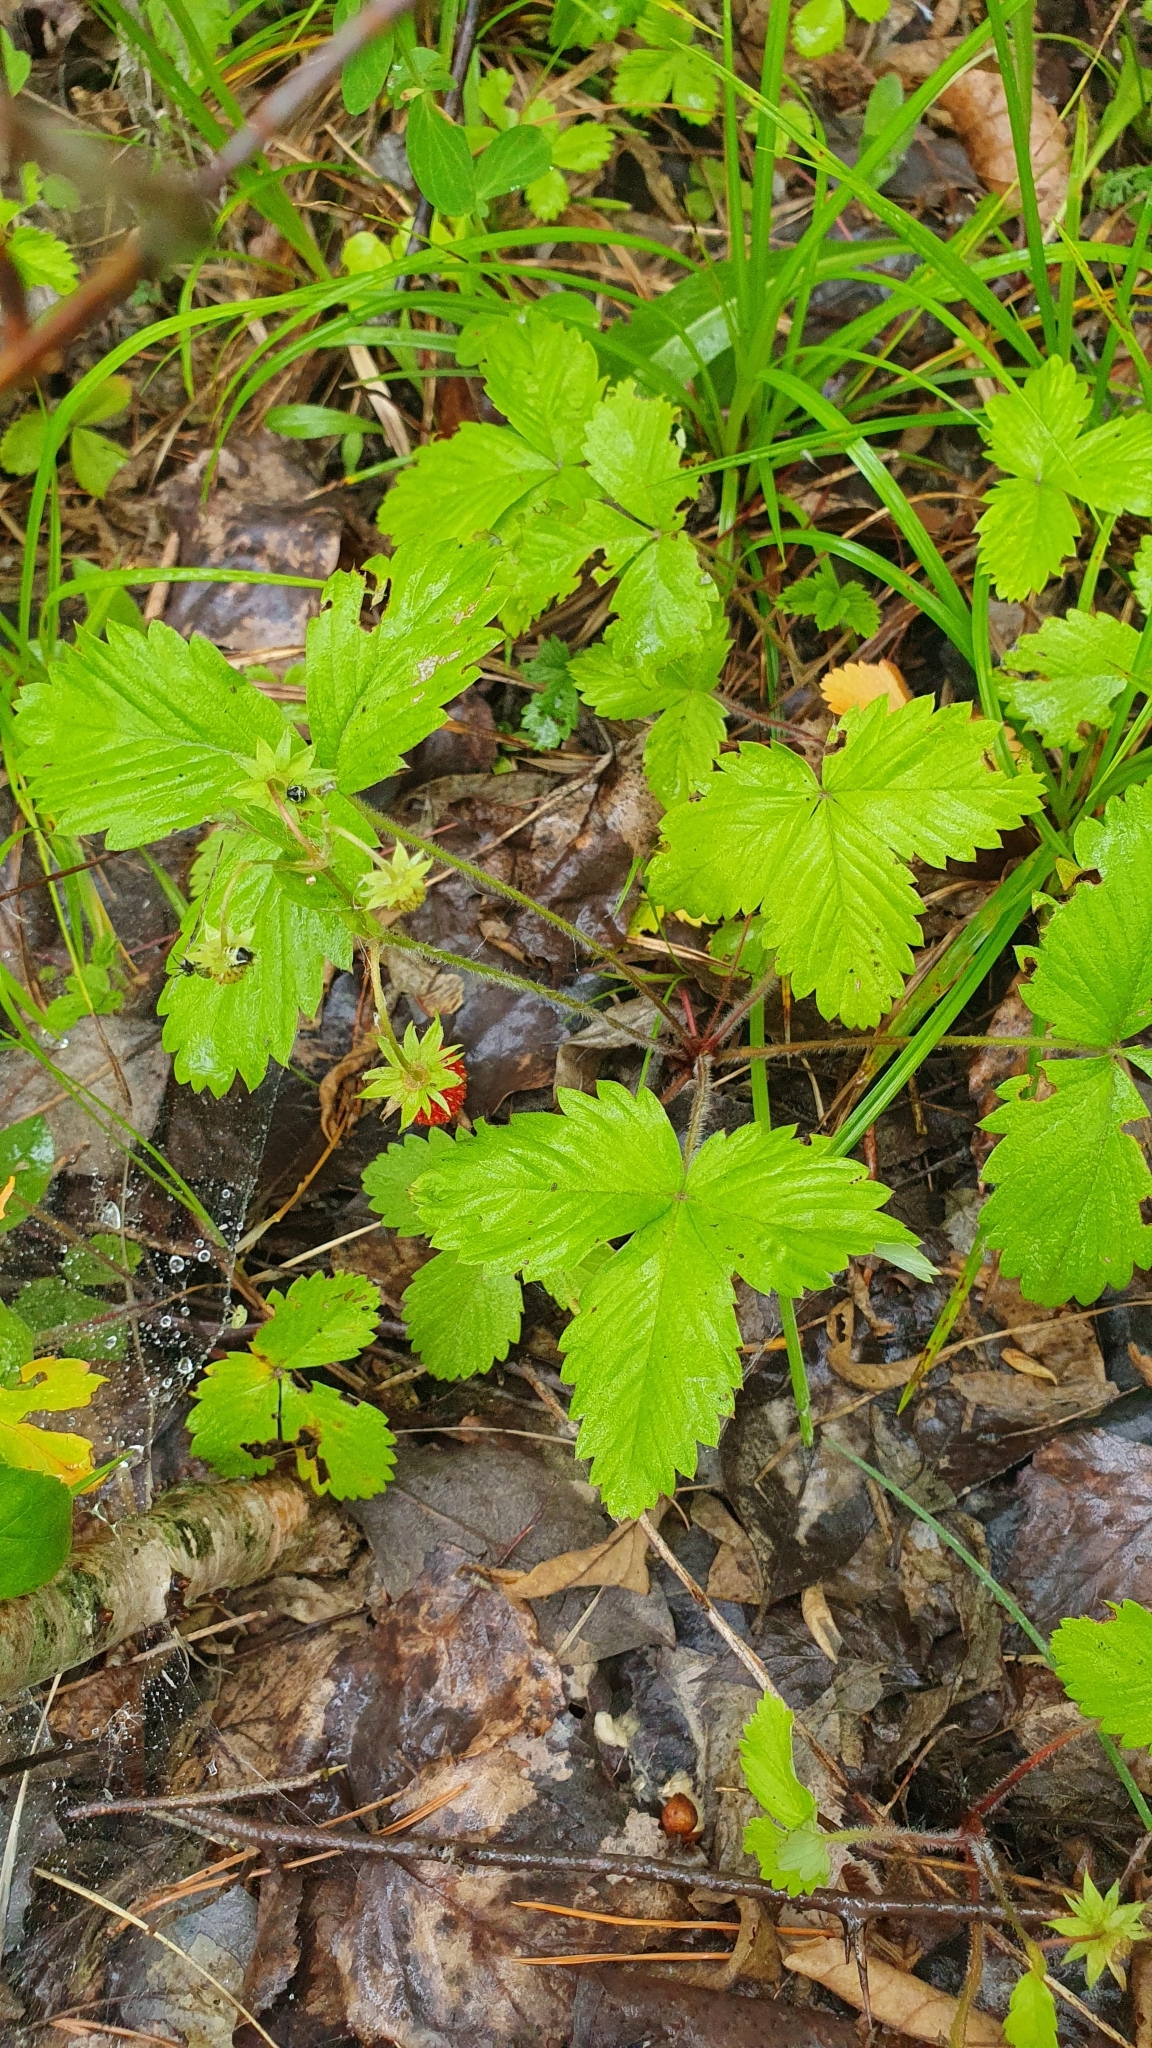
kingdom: Plantae
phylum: Tracheophyta
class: Magnoliopsida
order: Rosales
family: Rosaceae
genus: Fragaria
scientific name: Fragaria vesca
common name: Wild strawberry
